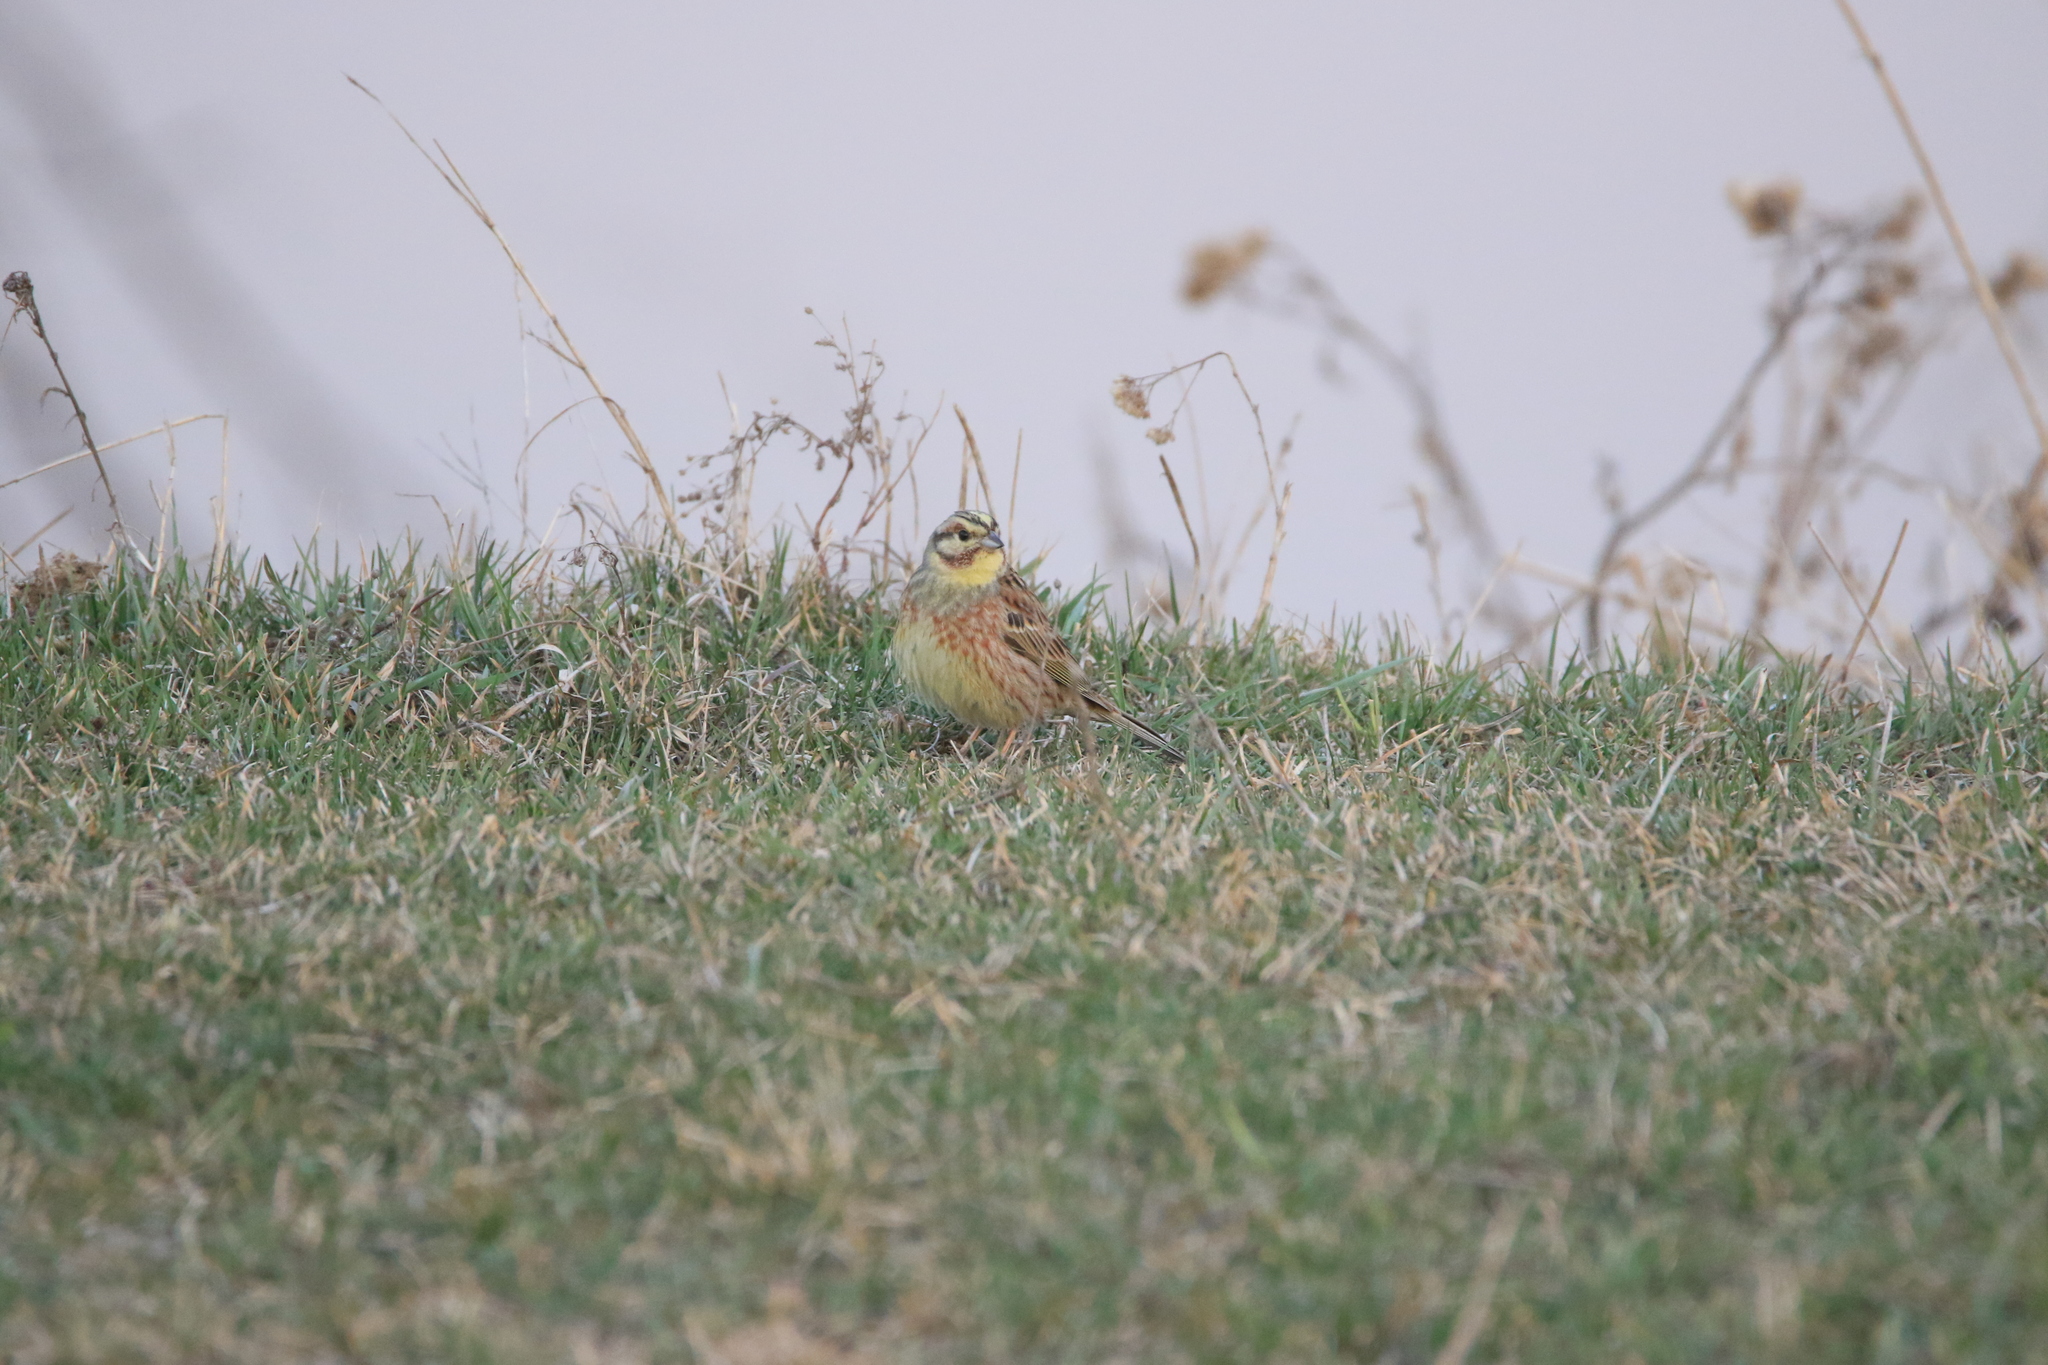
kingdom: Animalia
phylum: Chordata
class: Aves
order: Passeriformes
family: Emberizidae
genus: Emberiza
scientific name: Emberiza
